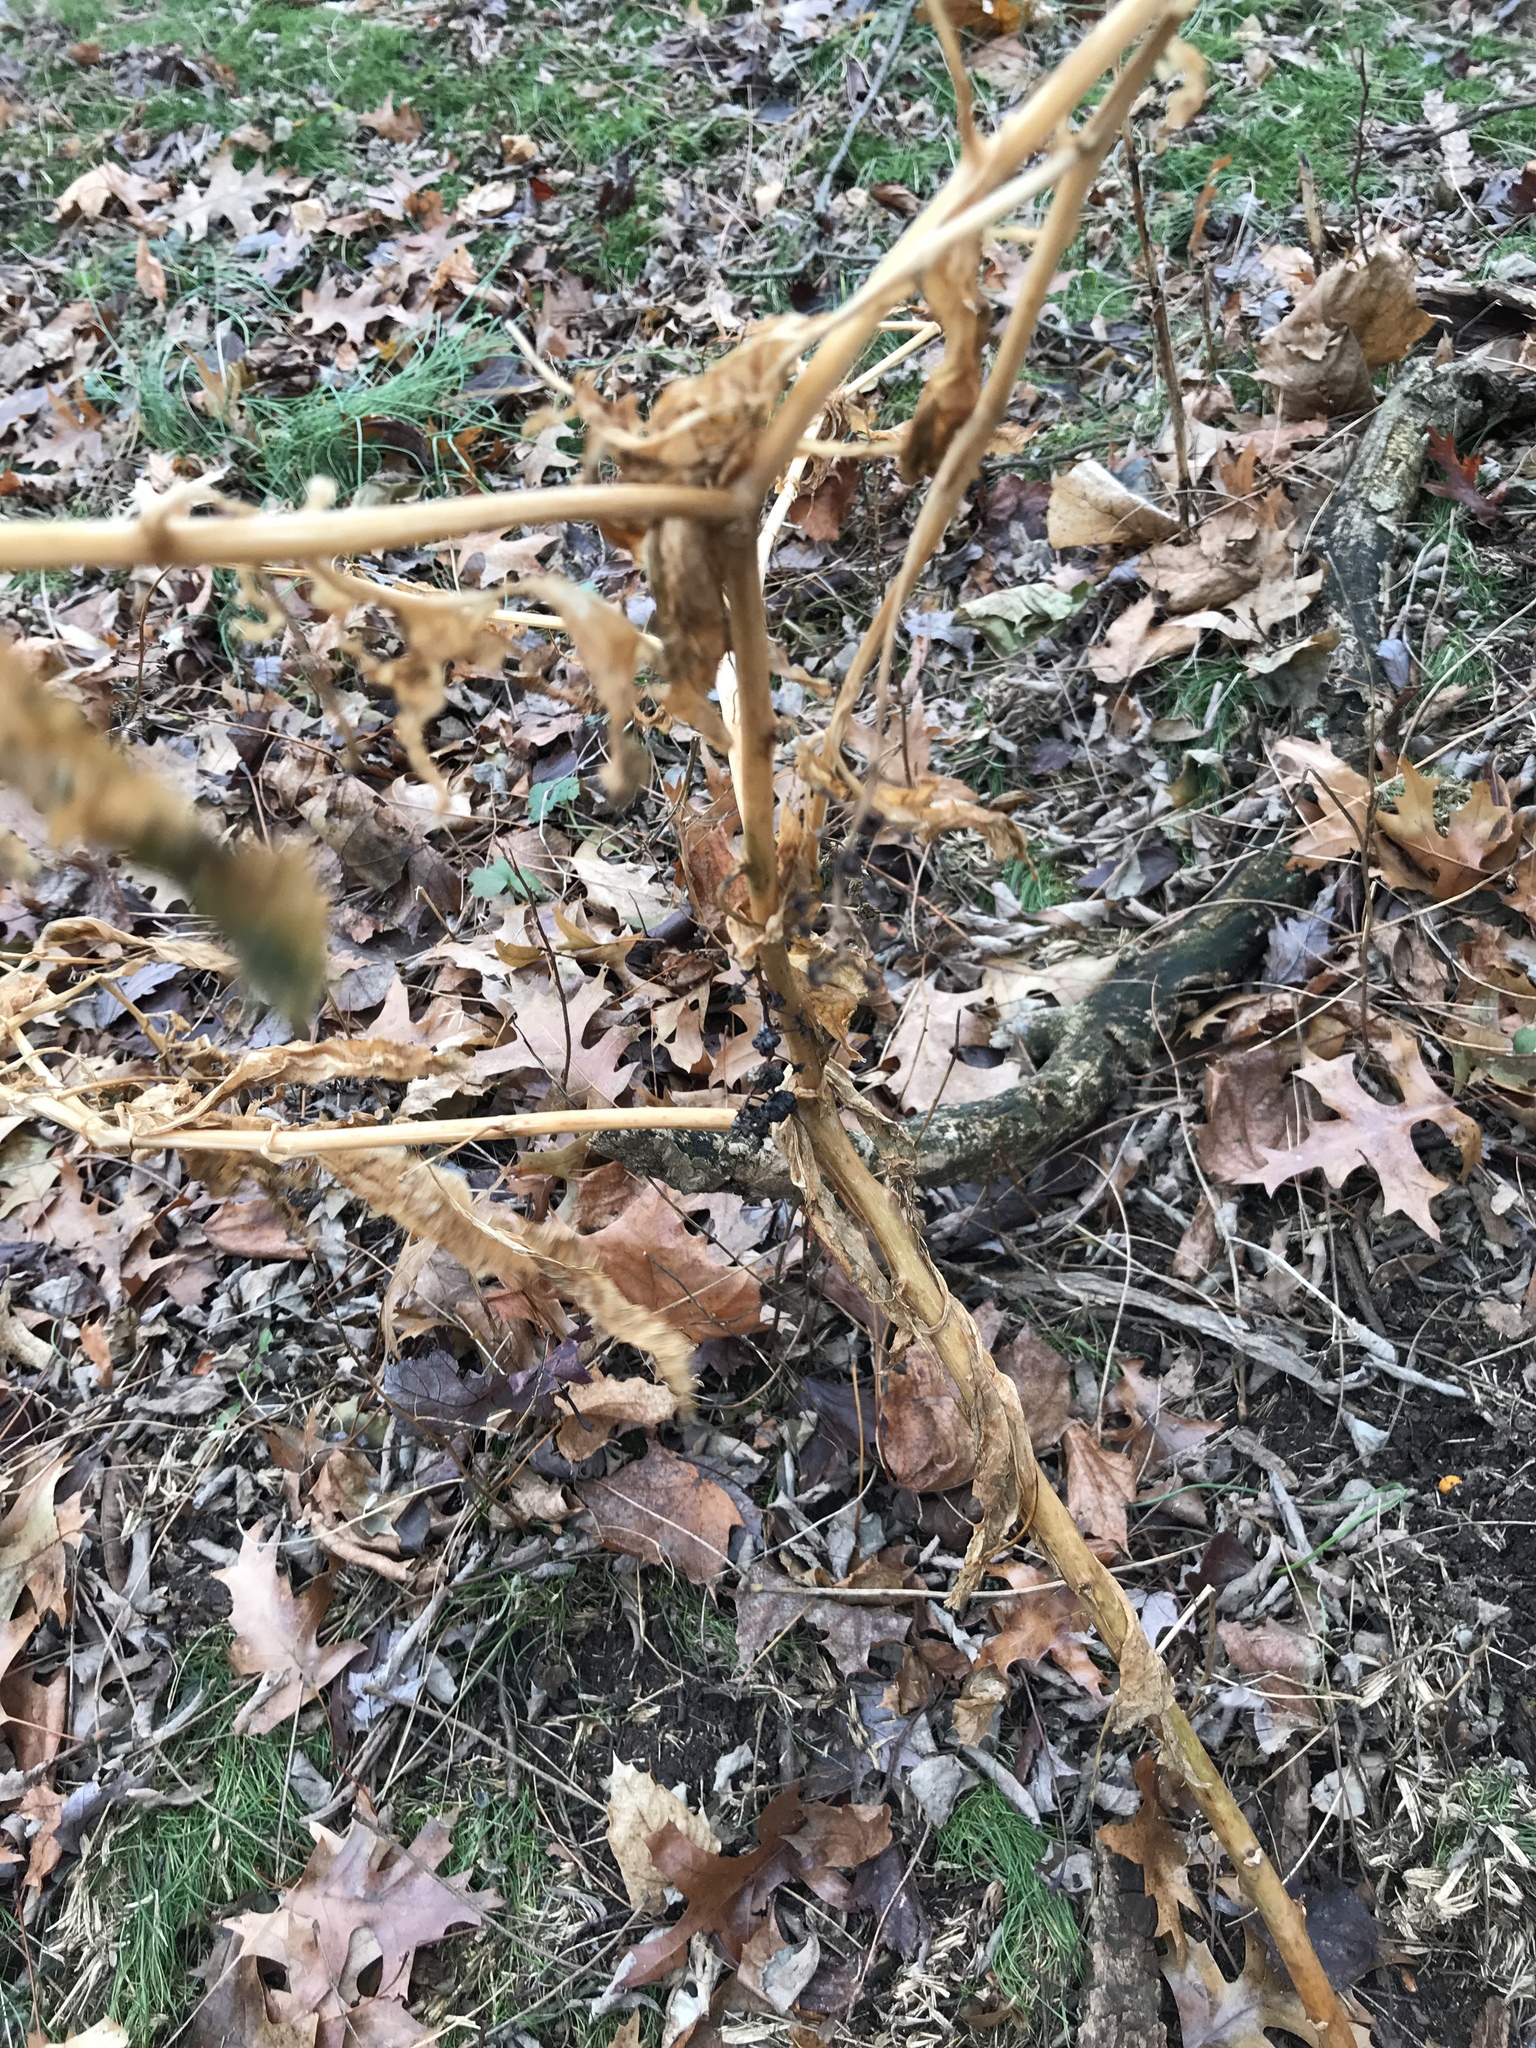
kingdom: Plantae
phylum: Tracheophyta
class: Magnoliopsida
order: Caryophyllales
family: Phytolaccaceae
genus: Phytolacca
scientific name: Phytolacca americana
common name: American pokeweed
